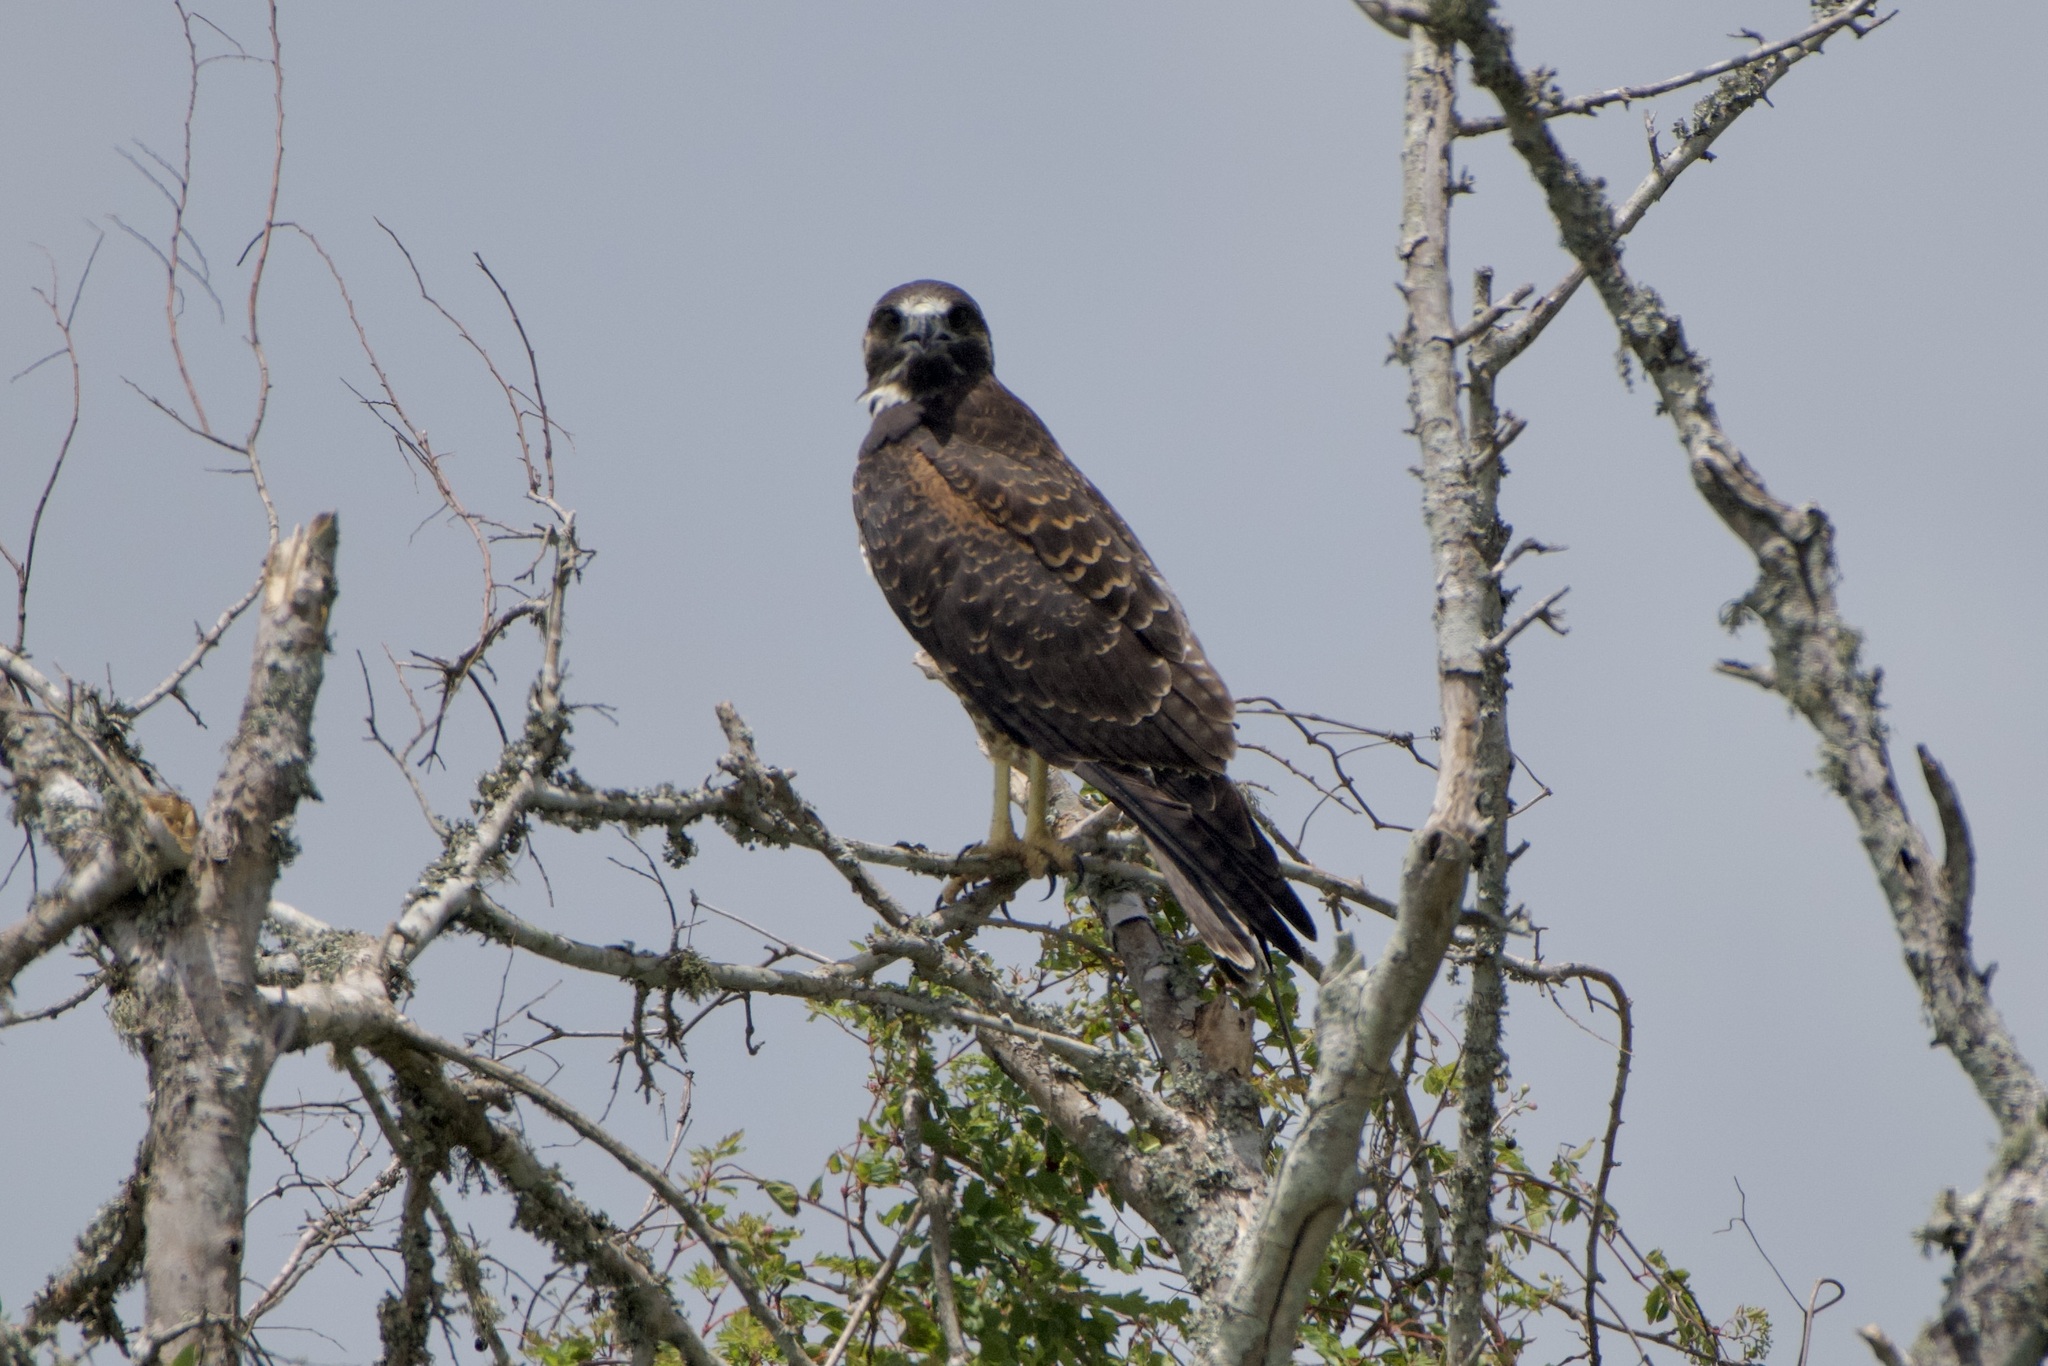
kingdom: Animalia
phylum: Chordata
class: Aves
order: Accipitriformes
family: Accipitridae
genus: Buteo
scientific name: Buteo albicaudatus
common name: White-tailed hawk
